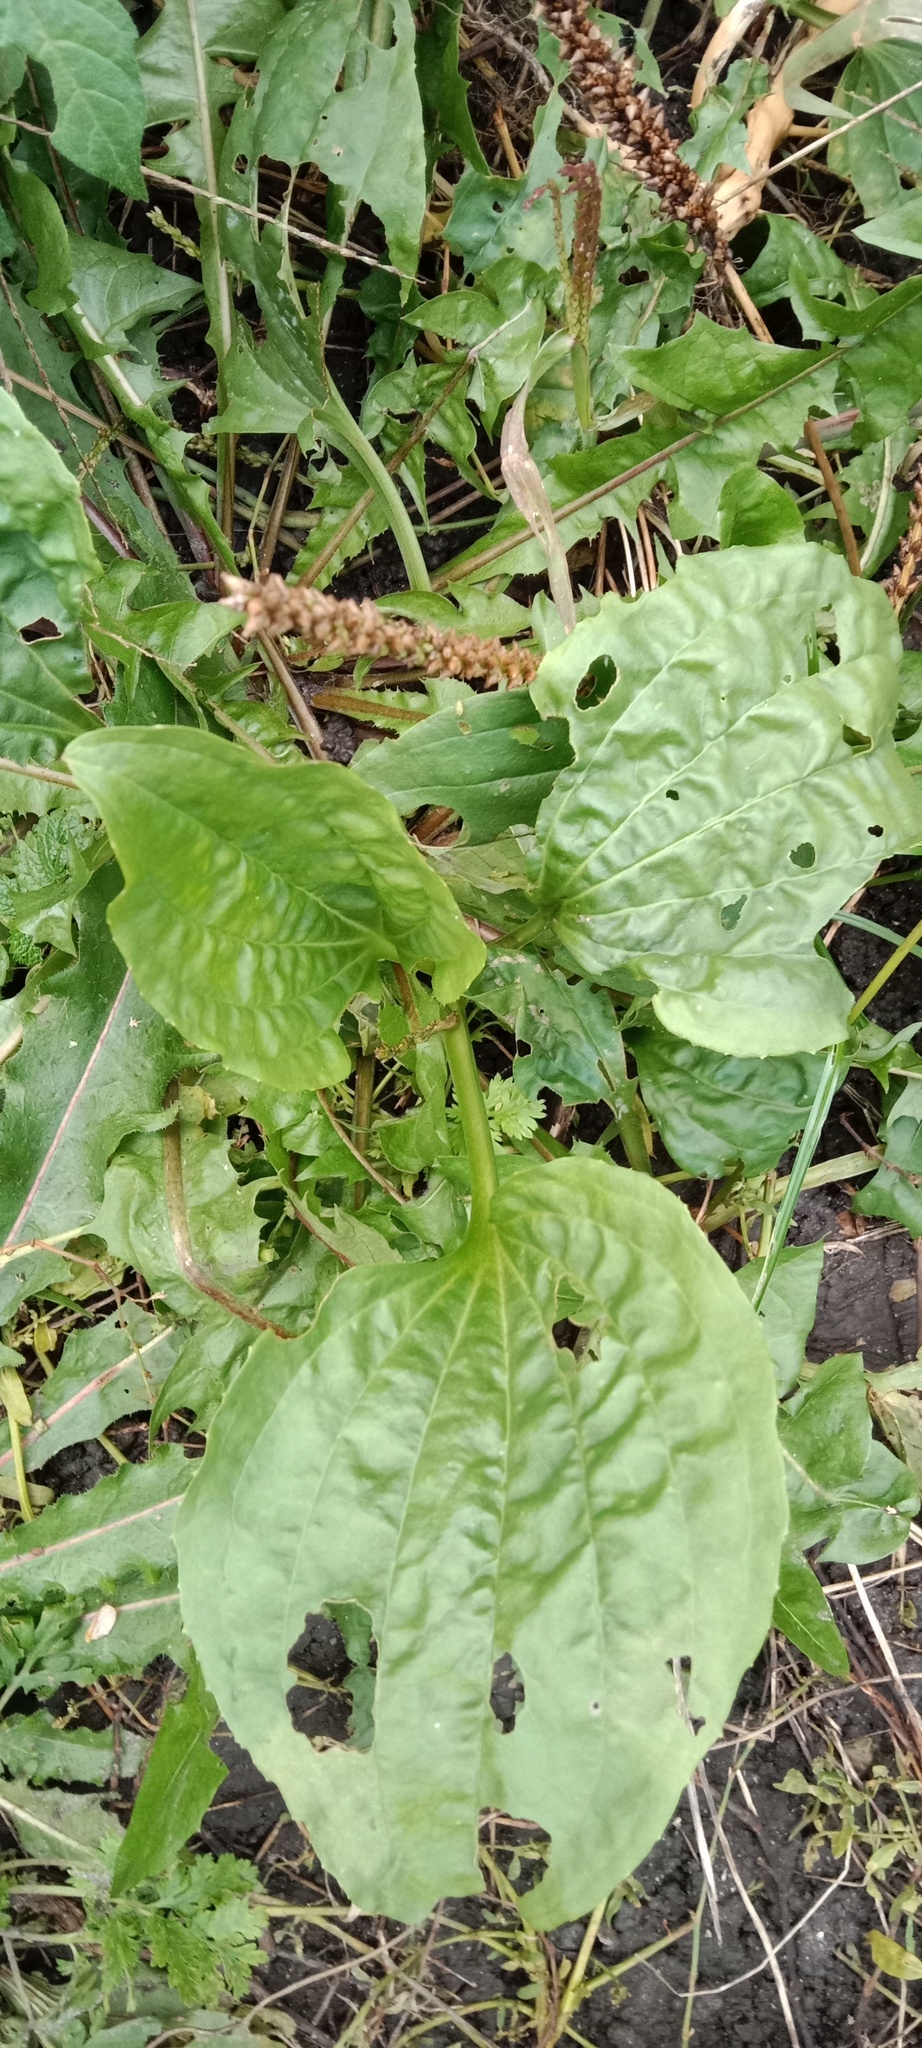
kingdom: Plantae
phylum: Tracheophyta
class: Magnoliopsida
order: Lamiales
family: Plantaginaceae
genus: Plantago
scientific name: Plantago major
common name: Common plantain
